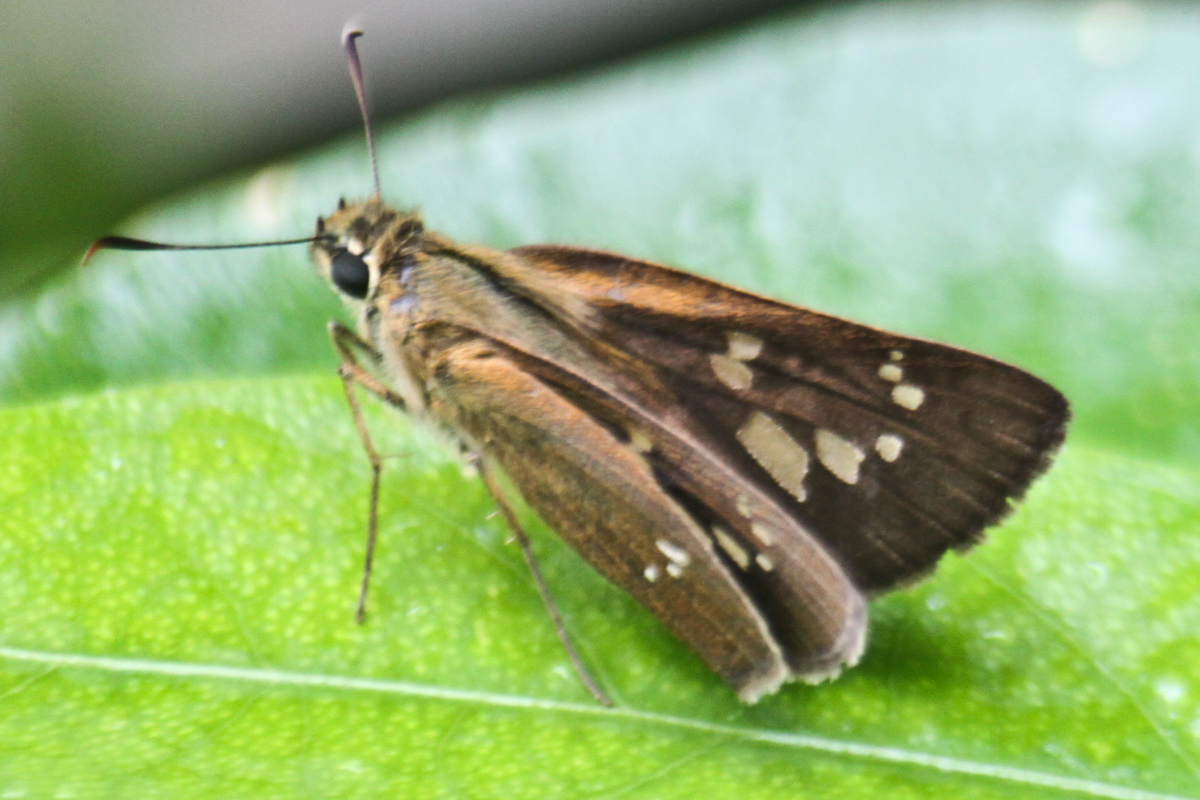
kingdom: Animalia
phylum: Arthropoda
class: Insecta
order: Lepidoptera
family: Hesperiidae
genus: Polytremis
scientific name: Polytremis lubricans
